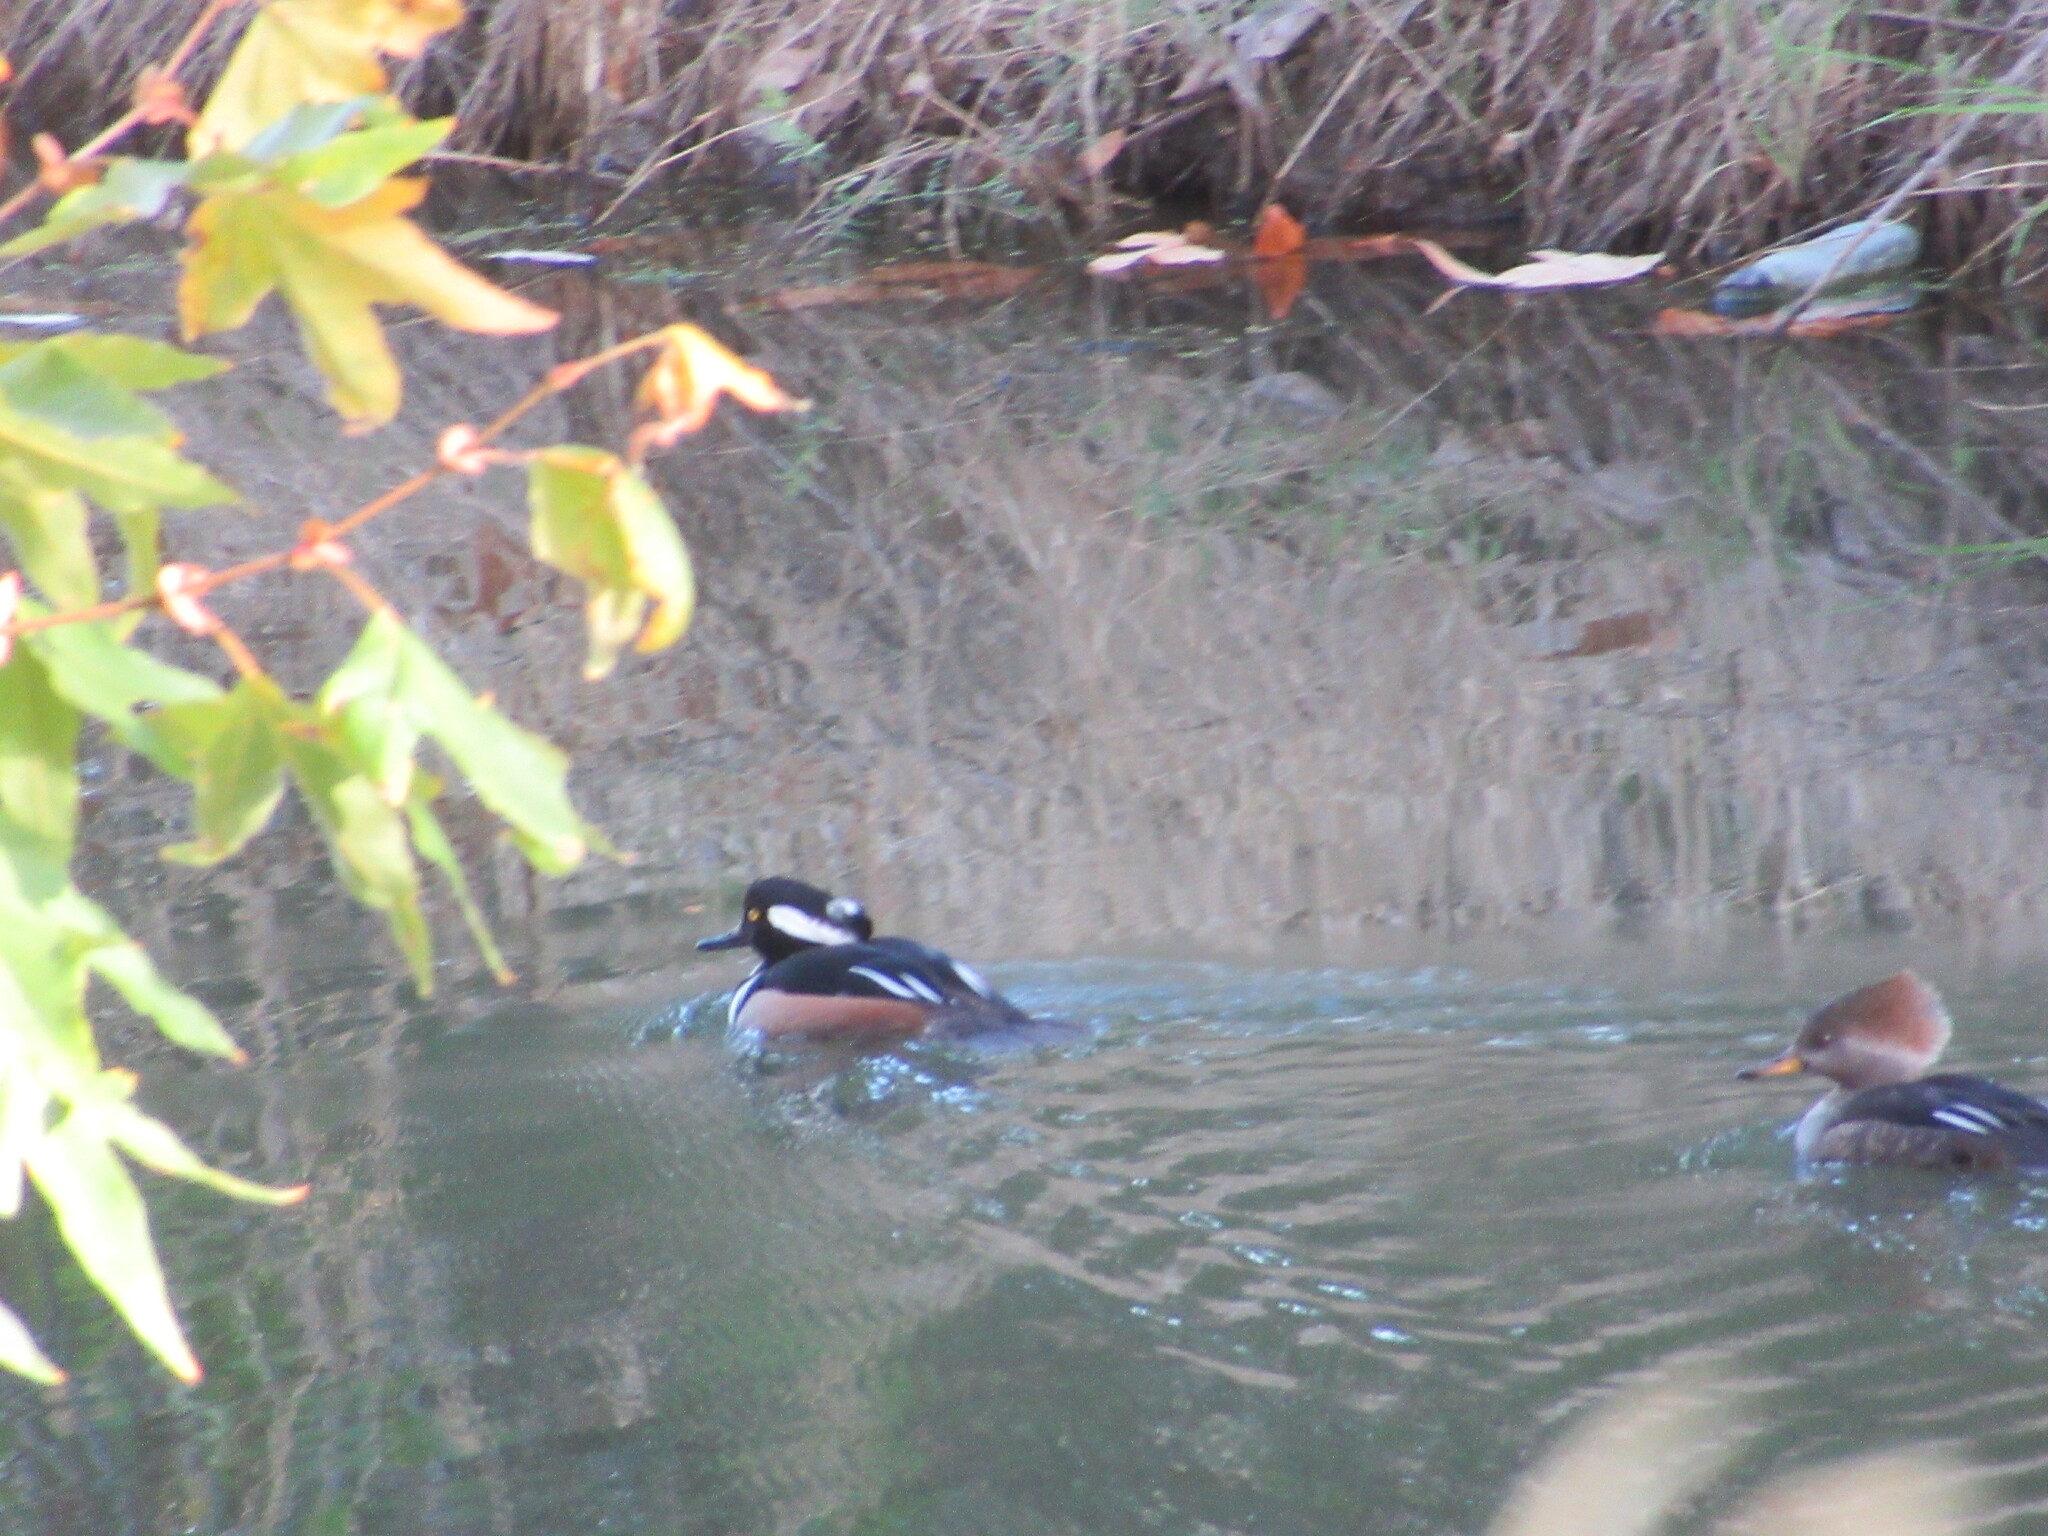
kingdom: Animalia
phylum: Chordata
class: Aves
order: Anseriformes
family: Anatidae
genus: Lophodytes
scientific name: Lophodytes cucullatus
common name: Hooded merganser
